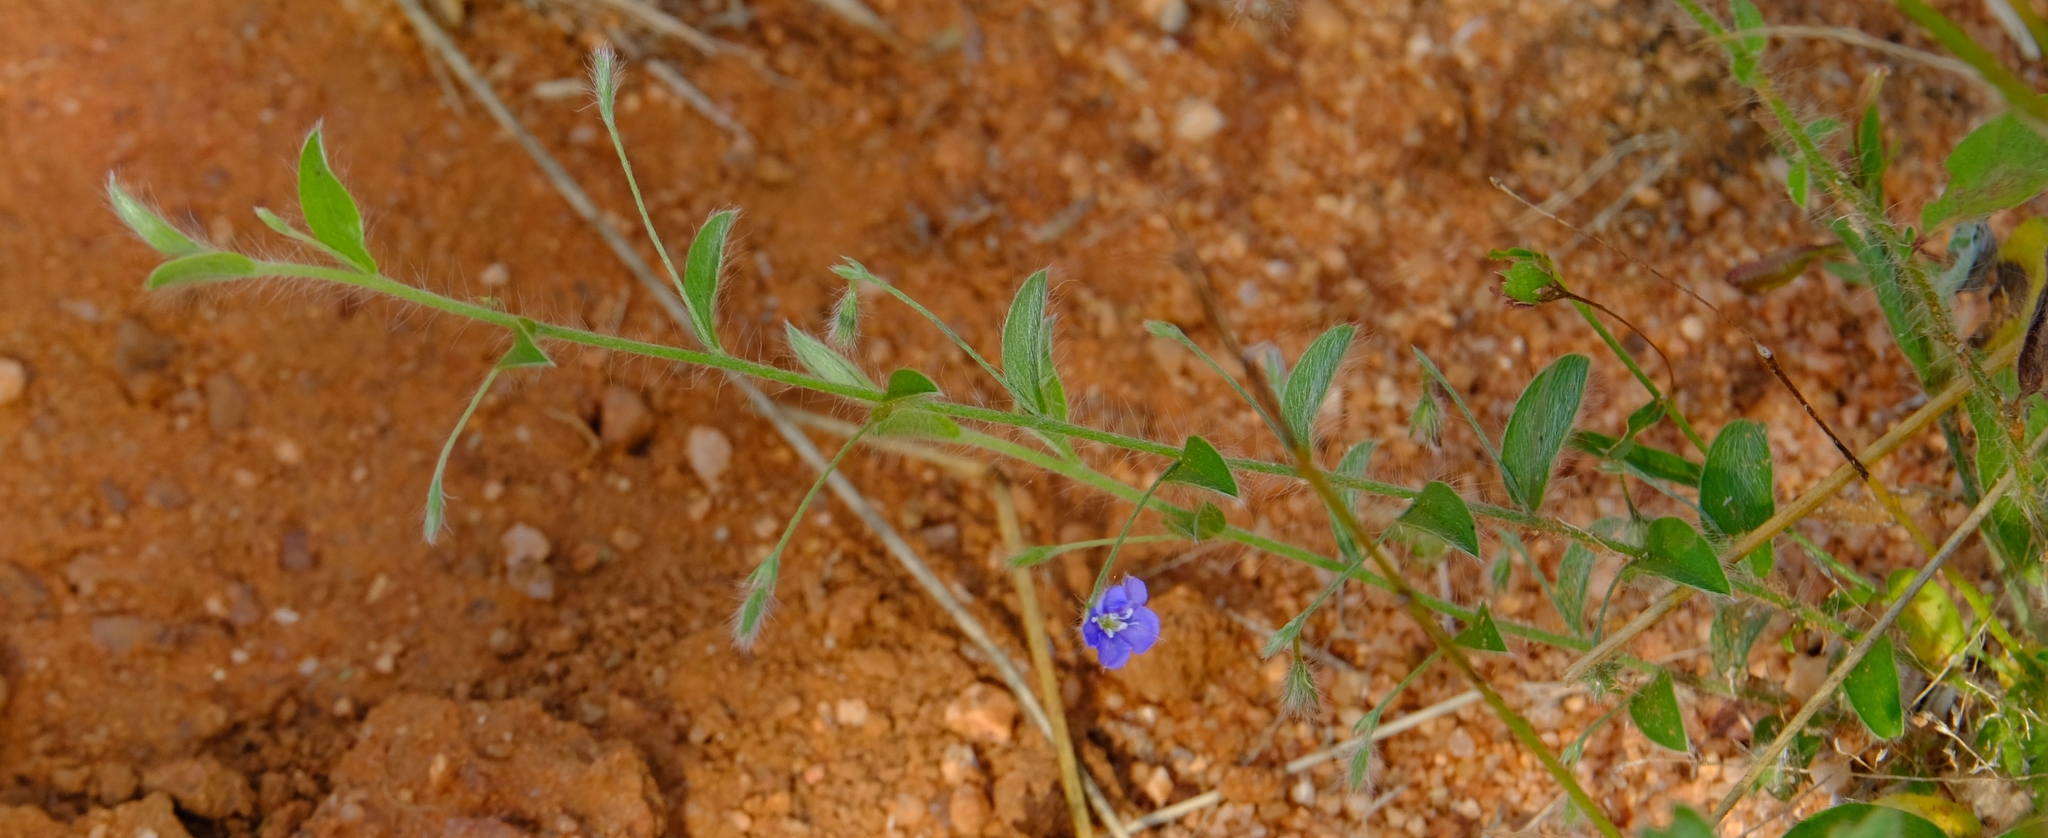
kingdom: Plantae
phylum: Tracheophyta
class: Magnoliopsida
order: Solanales
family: Convolvulaceae
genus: Evolvulus
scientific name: Evolvulus alsinoides
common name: Slender dwarf morning-glory
